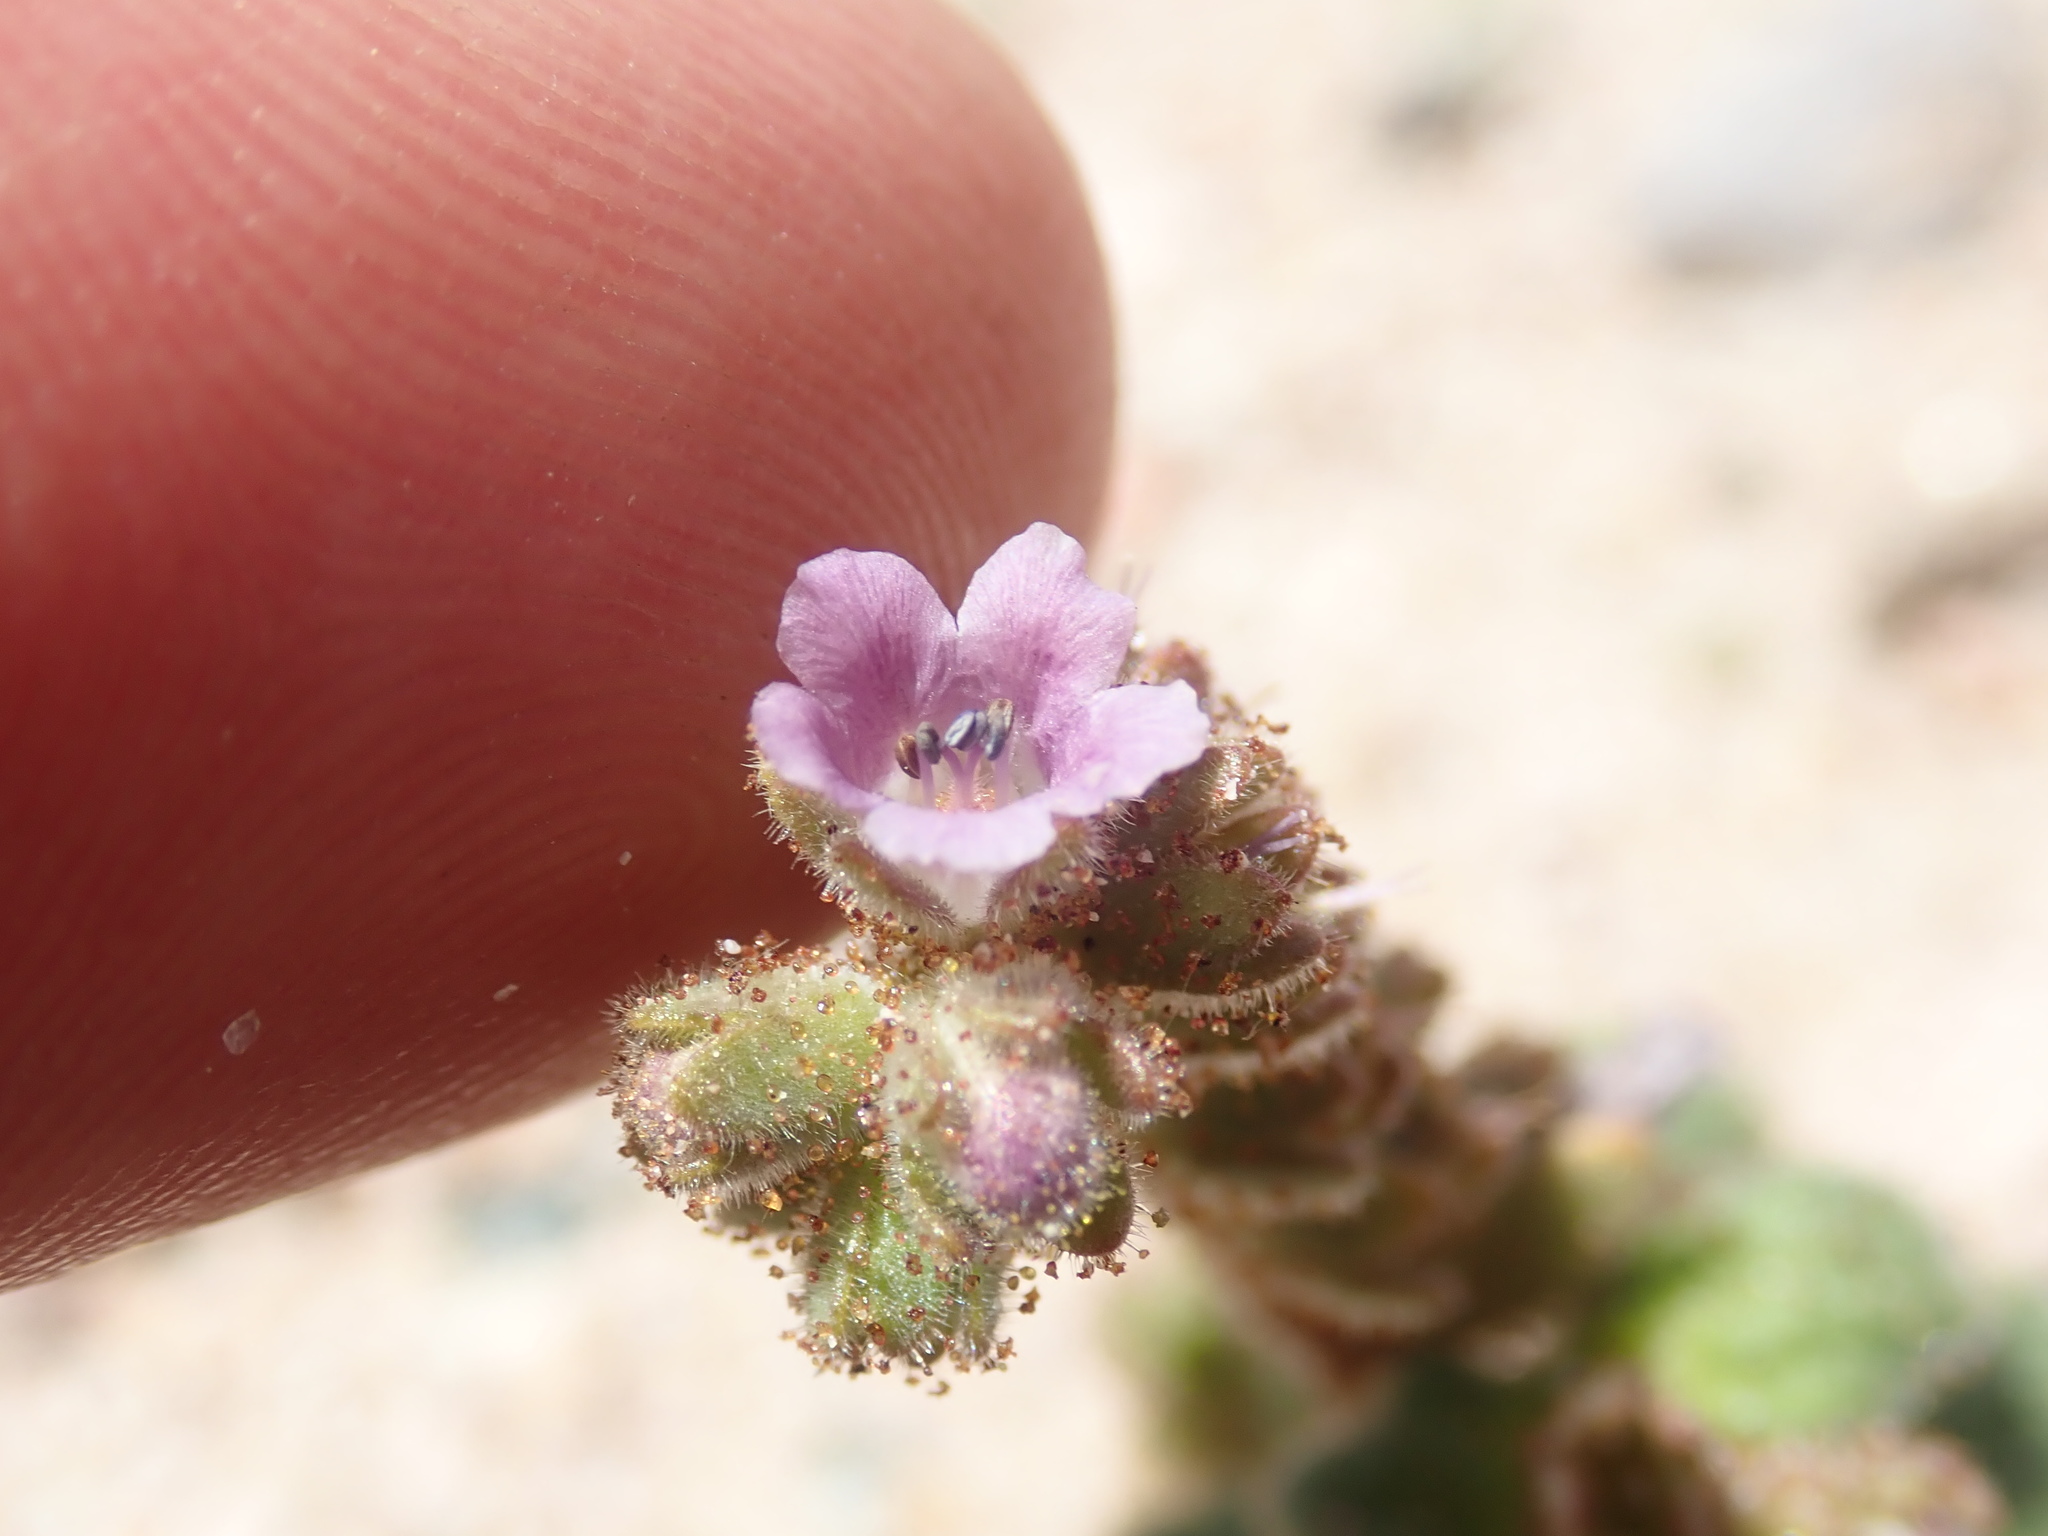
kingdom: Plantae
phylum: Tracheophyta
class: Magnoliopsida
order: Boraginales
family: Hydrophyllaceae
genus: Phacelia
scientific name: Phacelia pachyphylla
